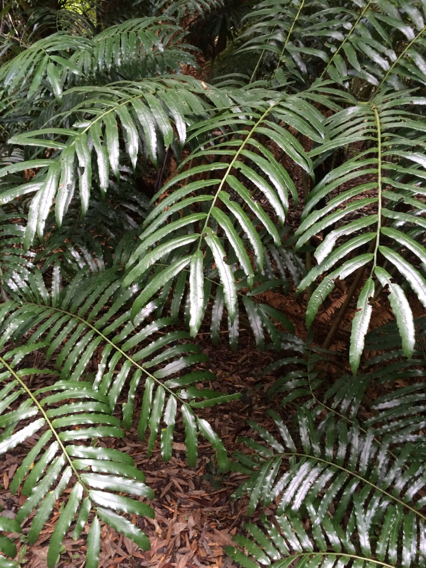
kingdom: Plantae
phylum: Tracheophyta
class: Polypodiopsida
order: Marattiales
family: Marattiaceae
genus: Ptisana
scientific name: Ptisana salicina
